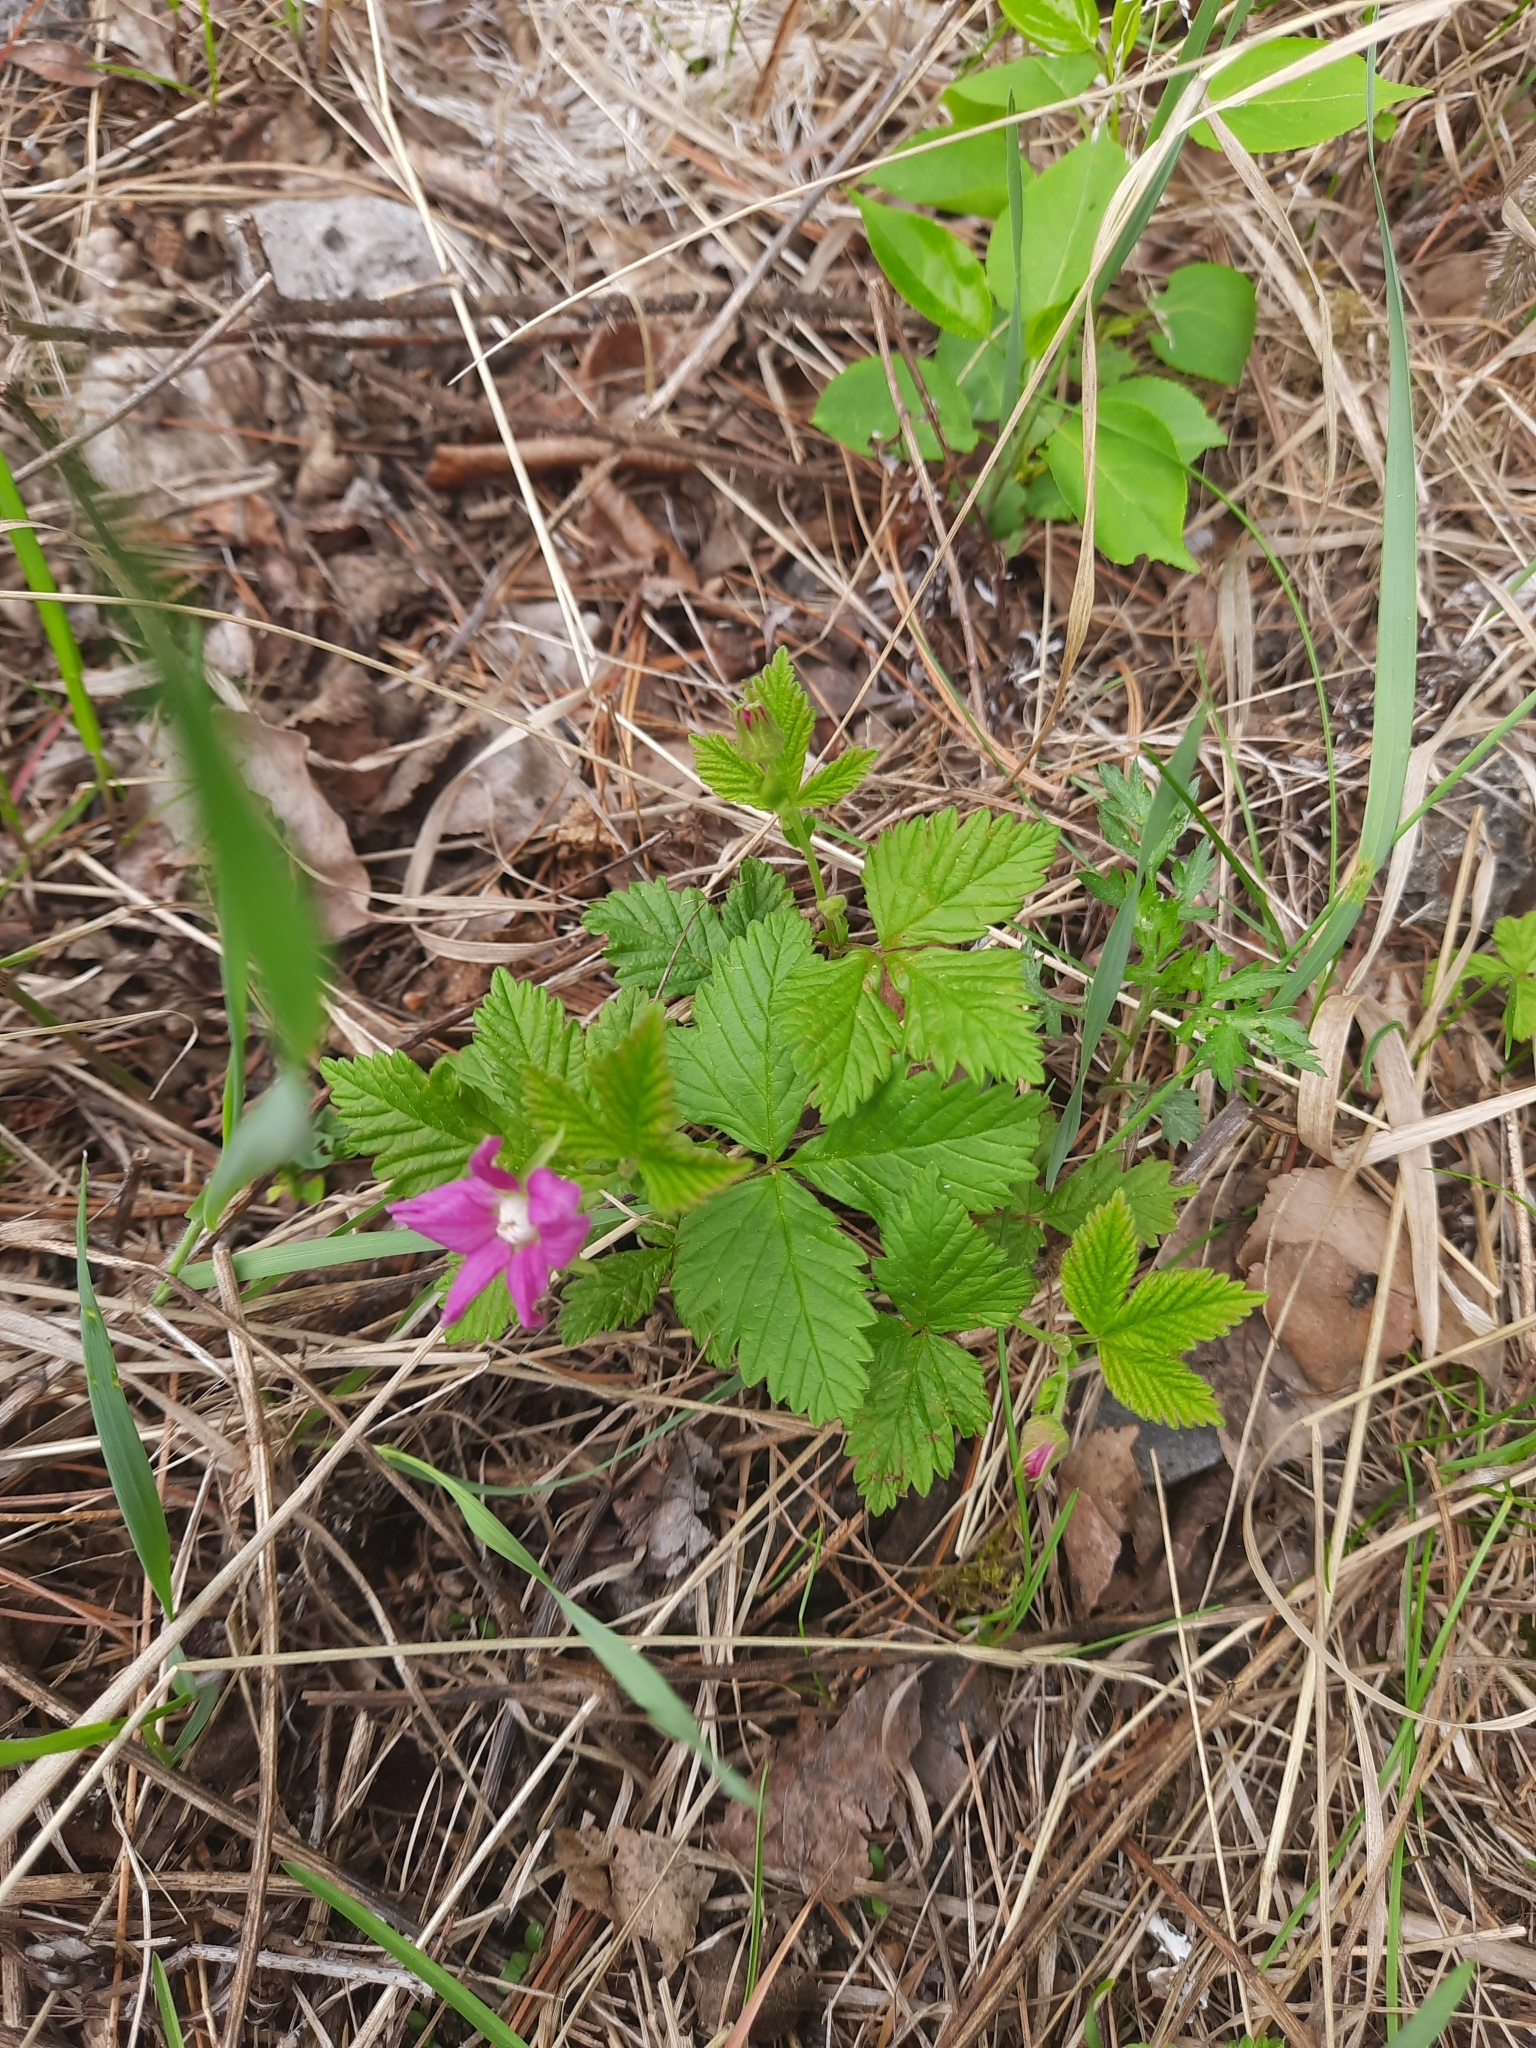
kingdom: Plantae
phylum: Tracheophyta
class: Magnoliopsida
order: Rosales
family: Rosaceae
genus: Rubus
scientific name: Rubus arcticus
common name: Arctic bramble
